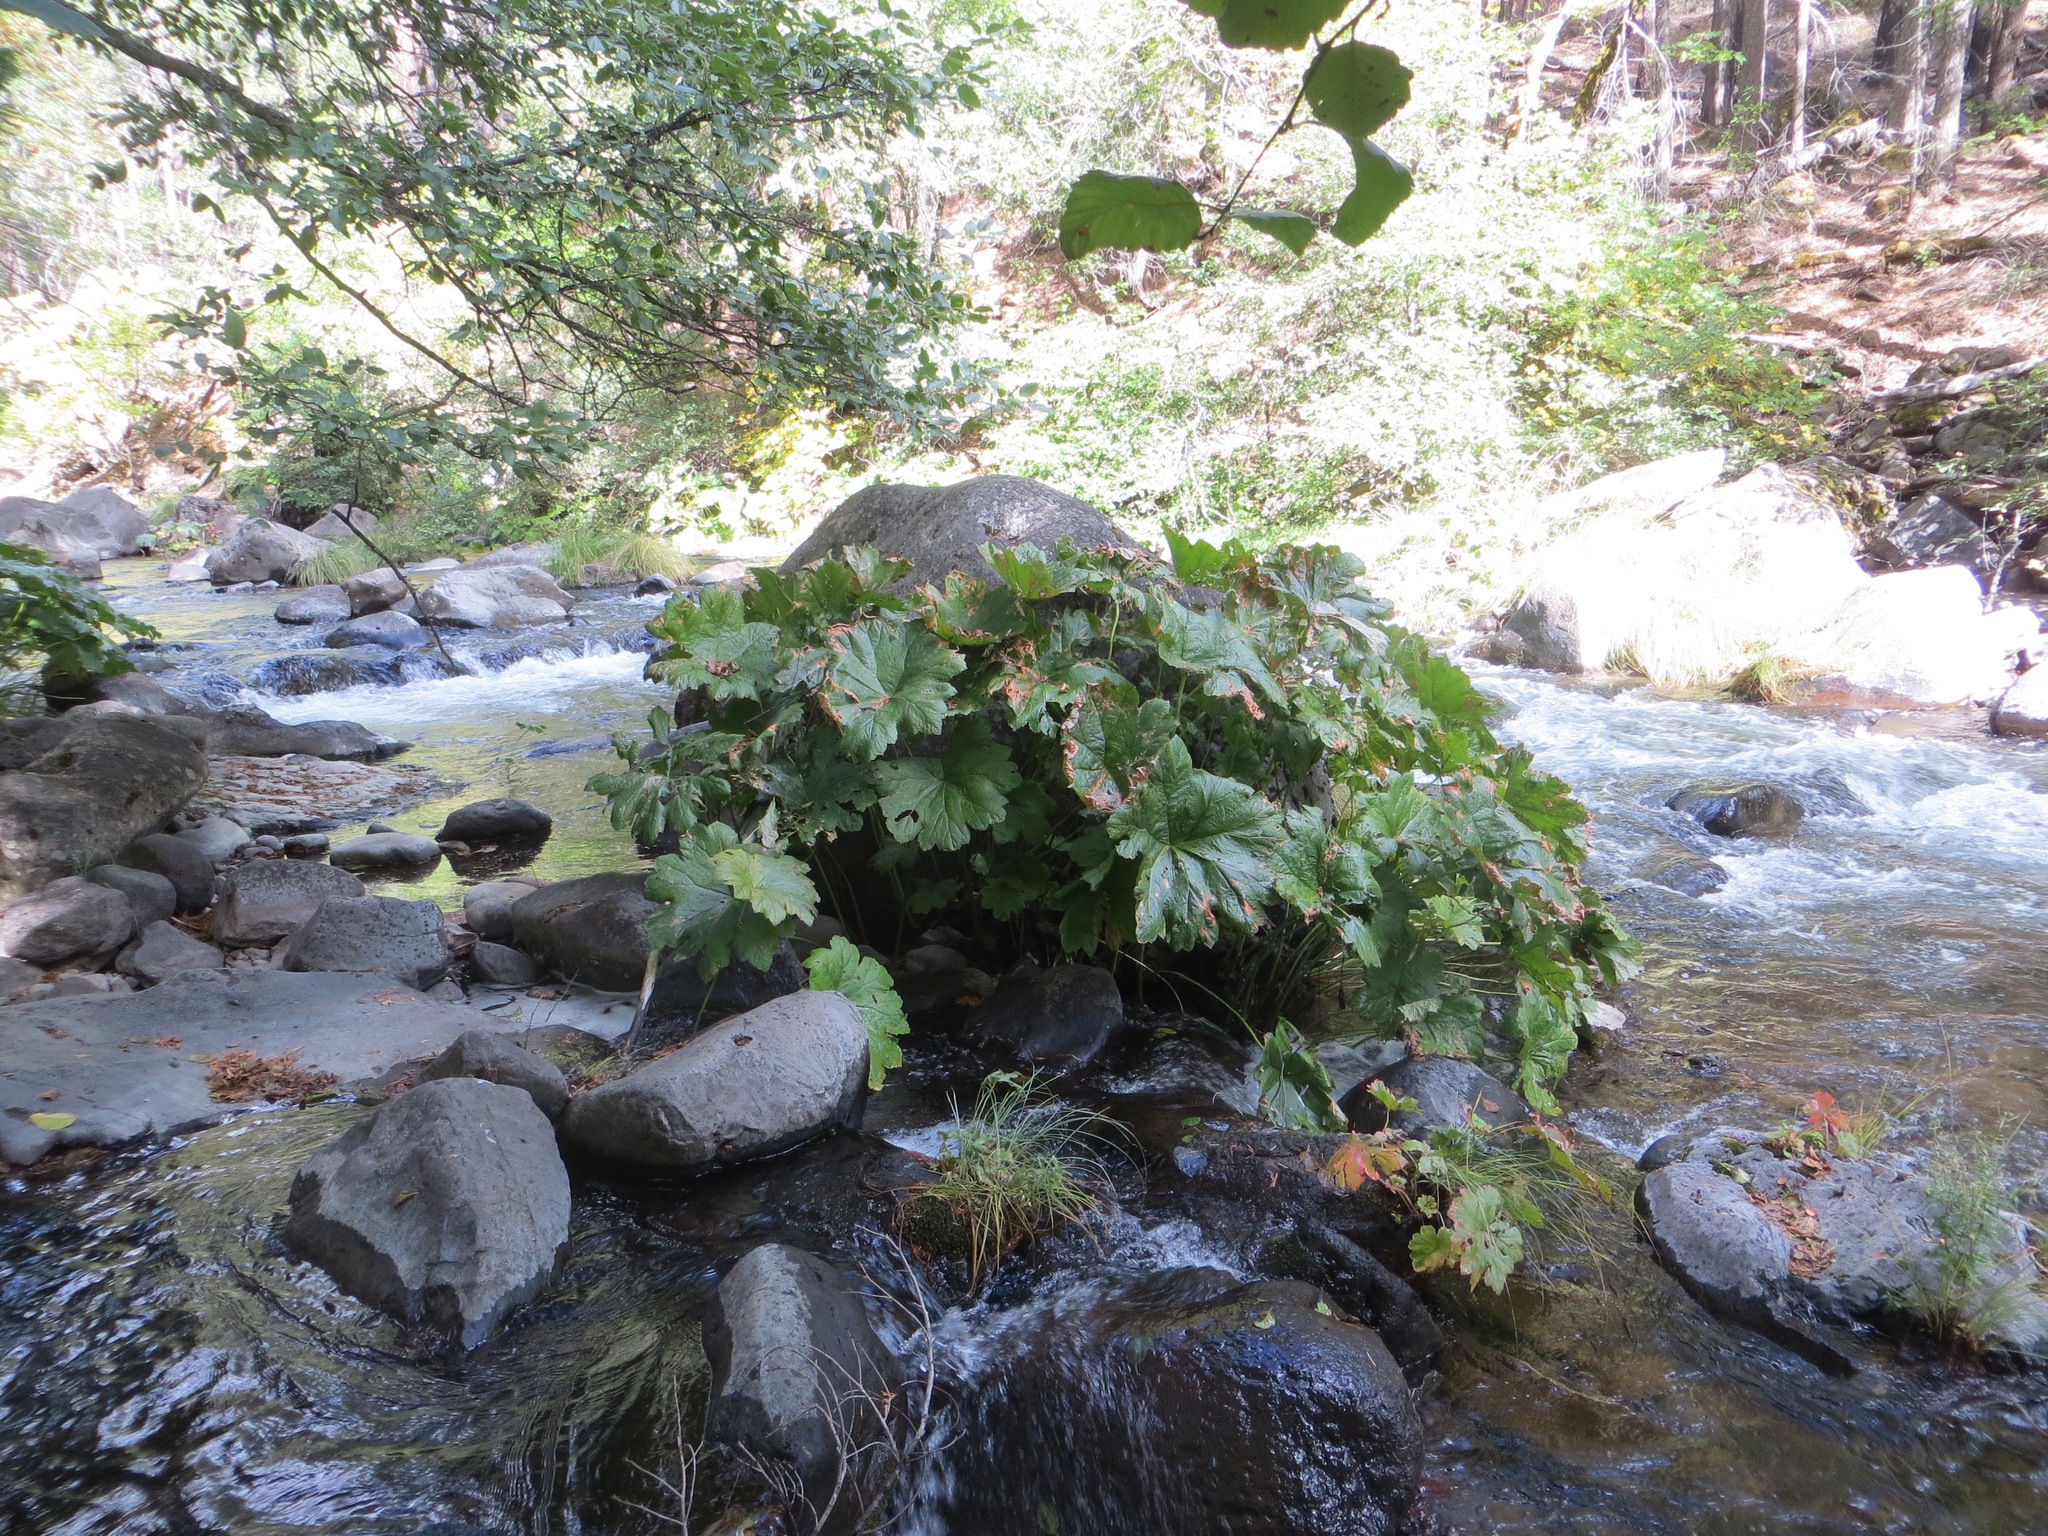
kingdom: Plantae
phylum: Tracheophyta
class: Magnoliopsida
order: Saxifragales
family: Saxifragaceae
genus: Darmera
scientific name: Darmera peltata
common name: Indian-rhubarb
